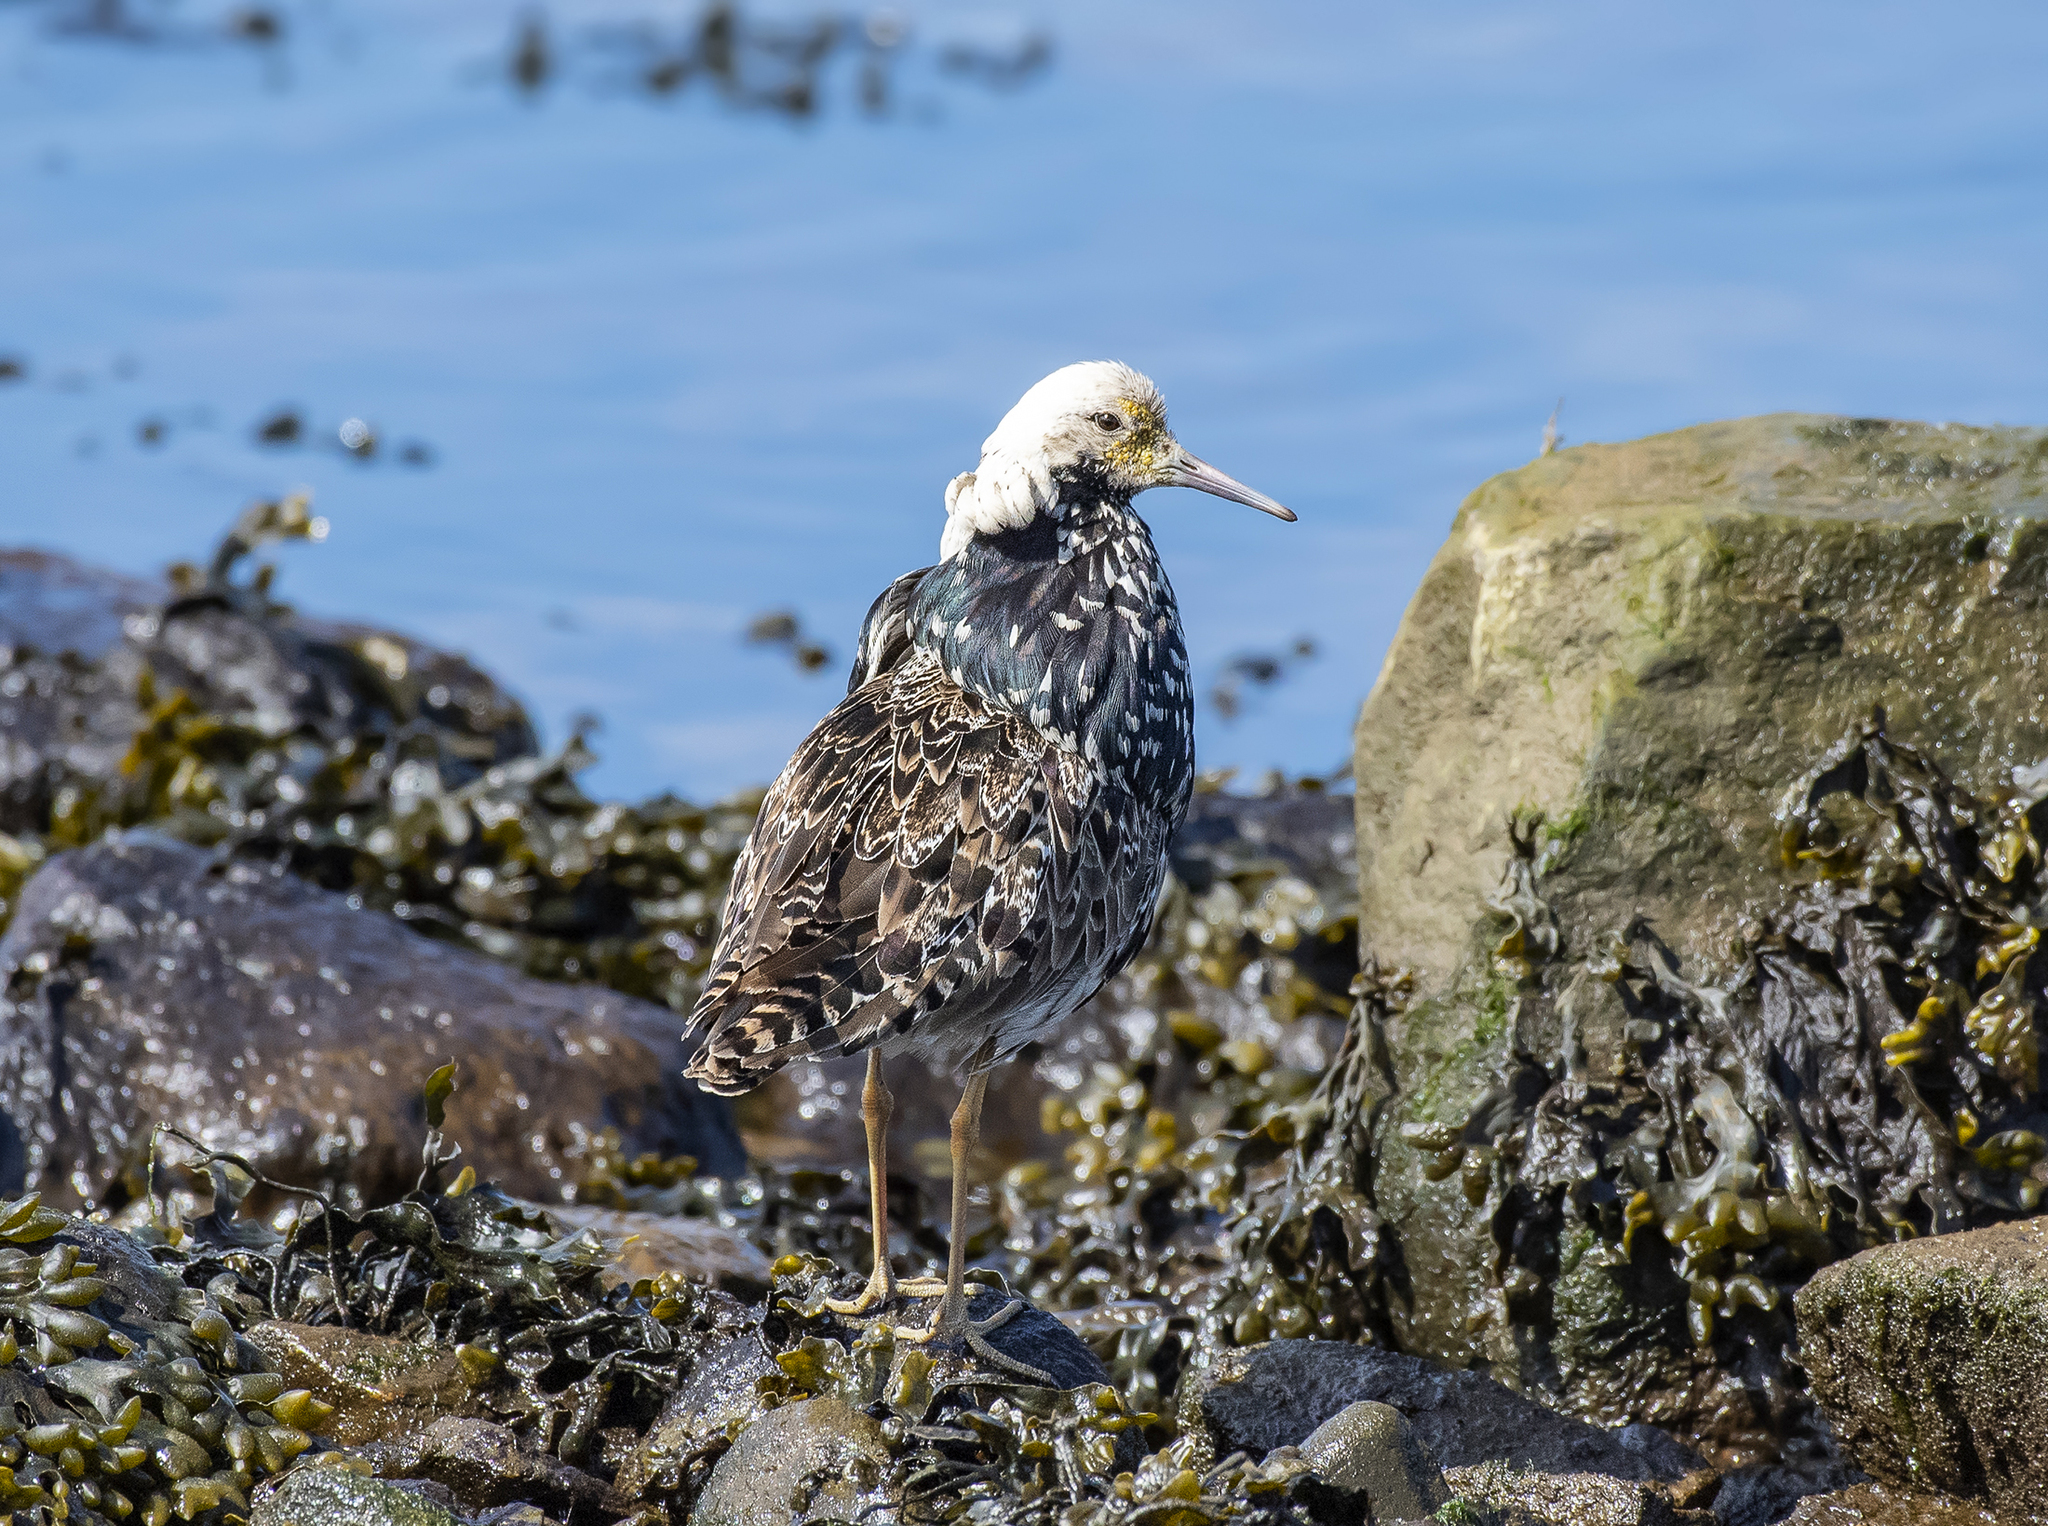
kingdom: Animalia
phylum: Chordata
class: Aves
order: Charadriiformes
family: Scolopacidae
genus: Calidris
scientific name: Calidris pugnax
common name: Ruff
